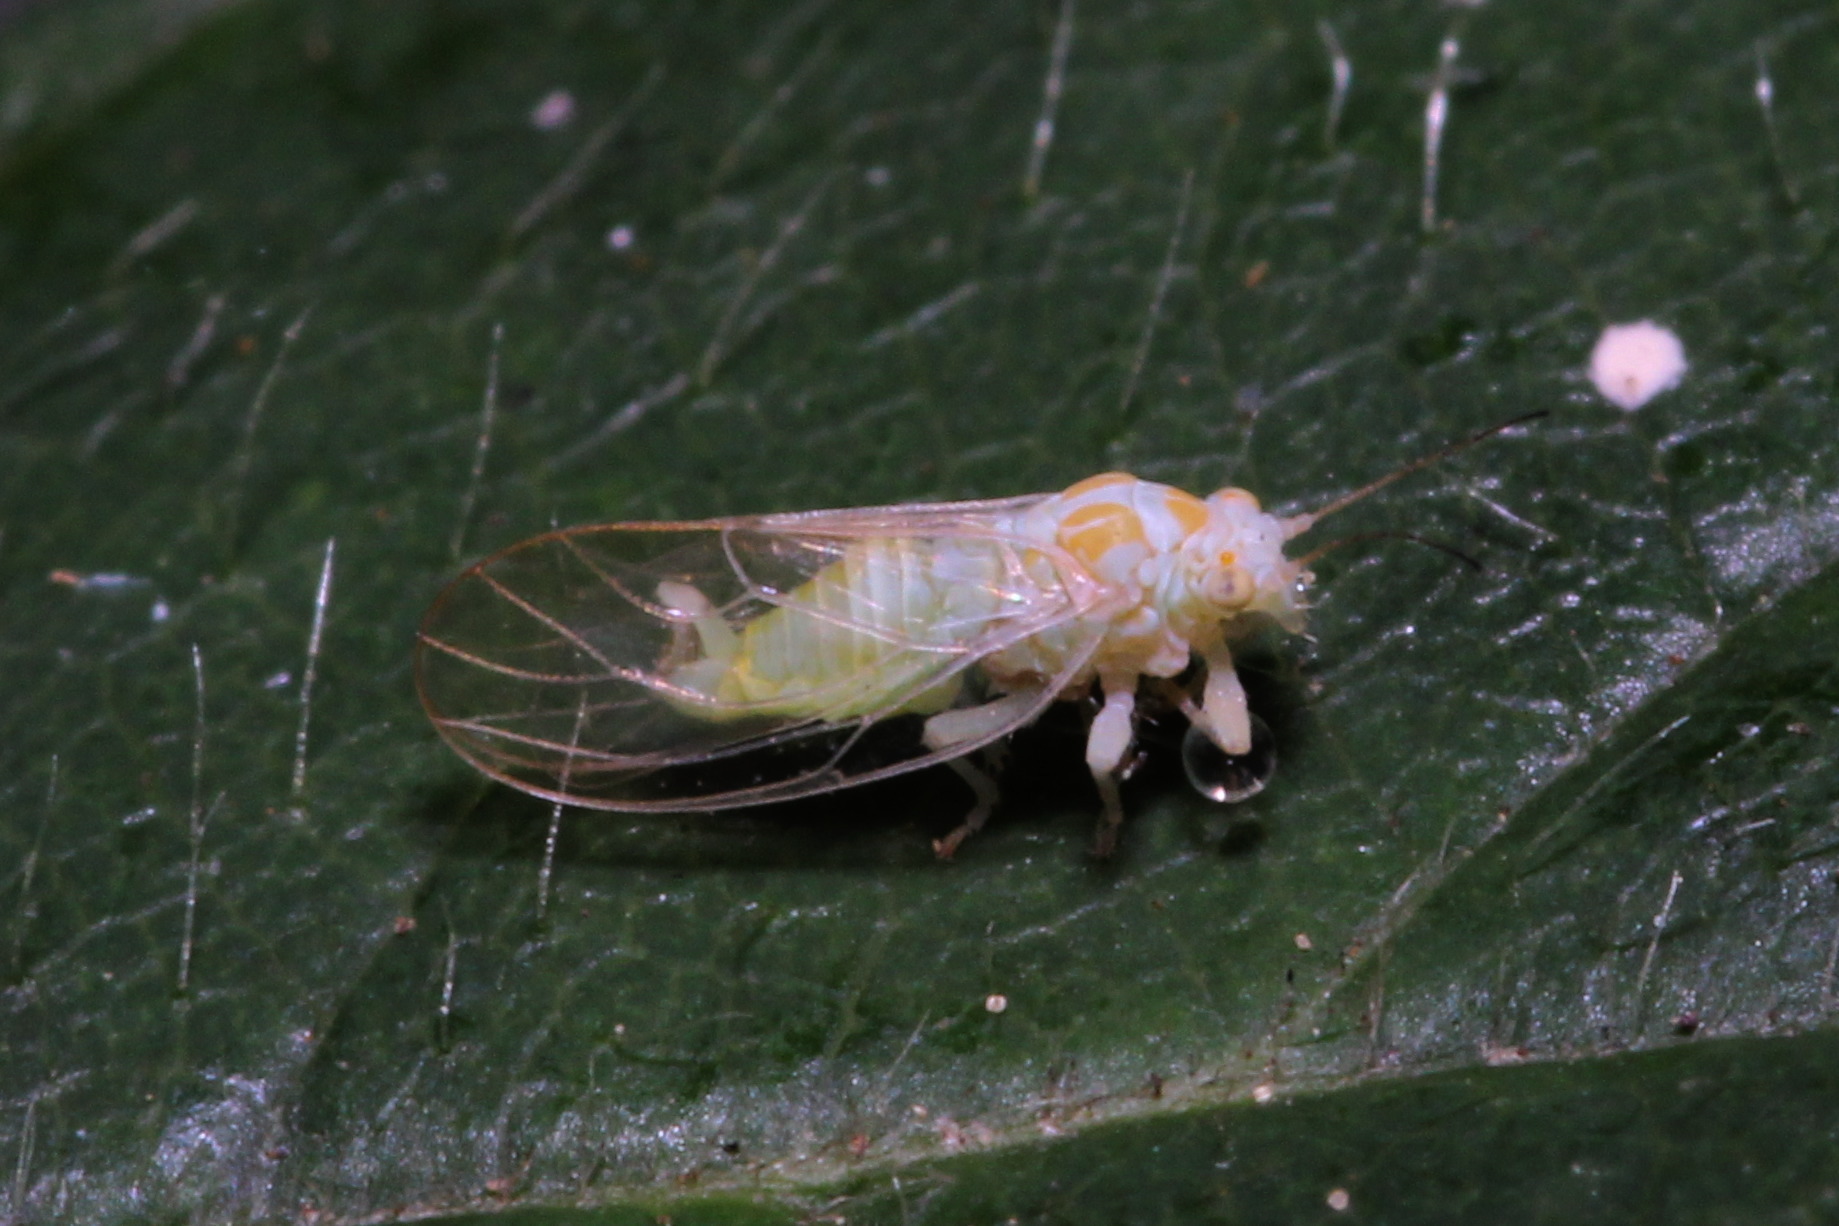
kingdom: Animalia
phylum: Arthropoda
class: Insecta
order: Hemiptera
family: Psyllidae
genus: Cacopsylla
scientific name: Cacopsylla hippophaes
